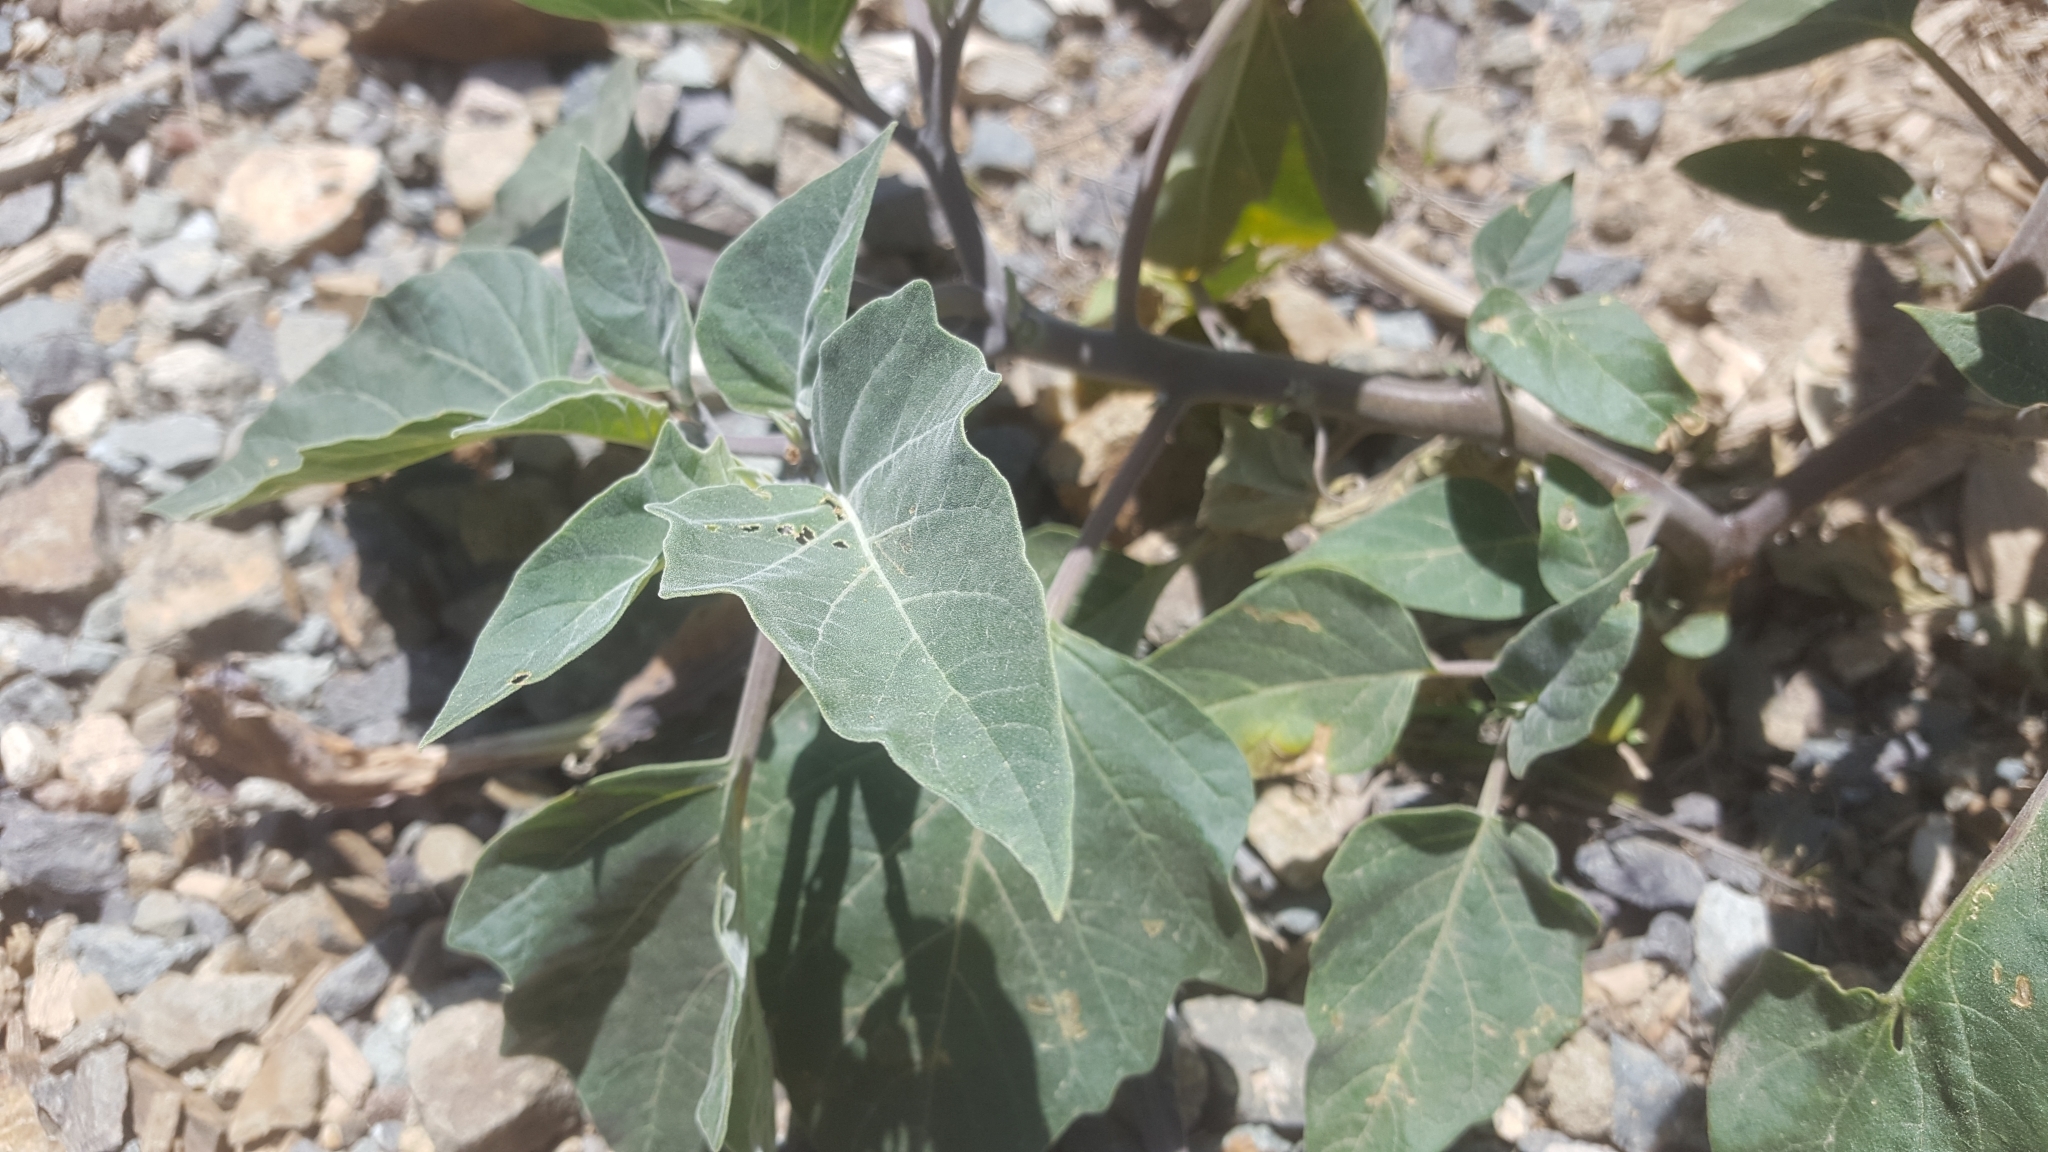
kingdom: Plantae
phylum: Tracheophyta
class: Magnoliopsida
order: Solanales
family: Solanaceae
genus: Datura
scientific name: Datura wrightii
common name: Sacred thorn-apple
